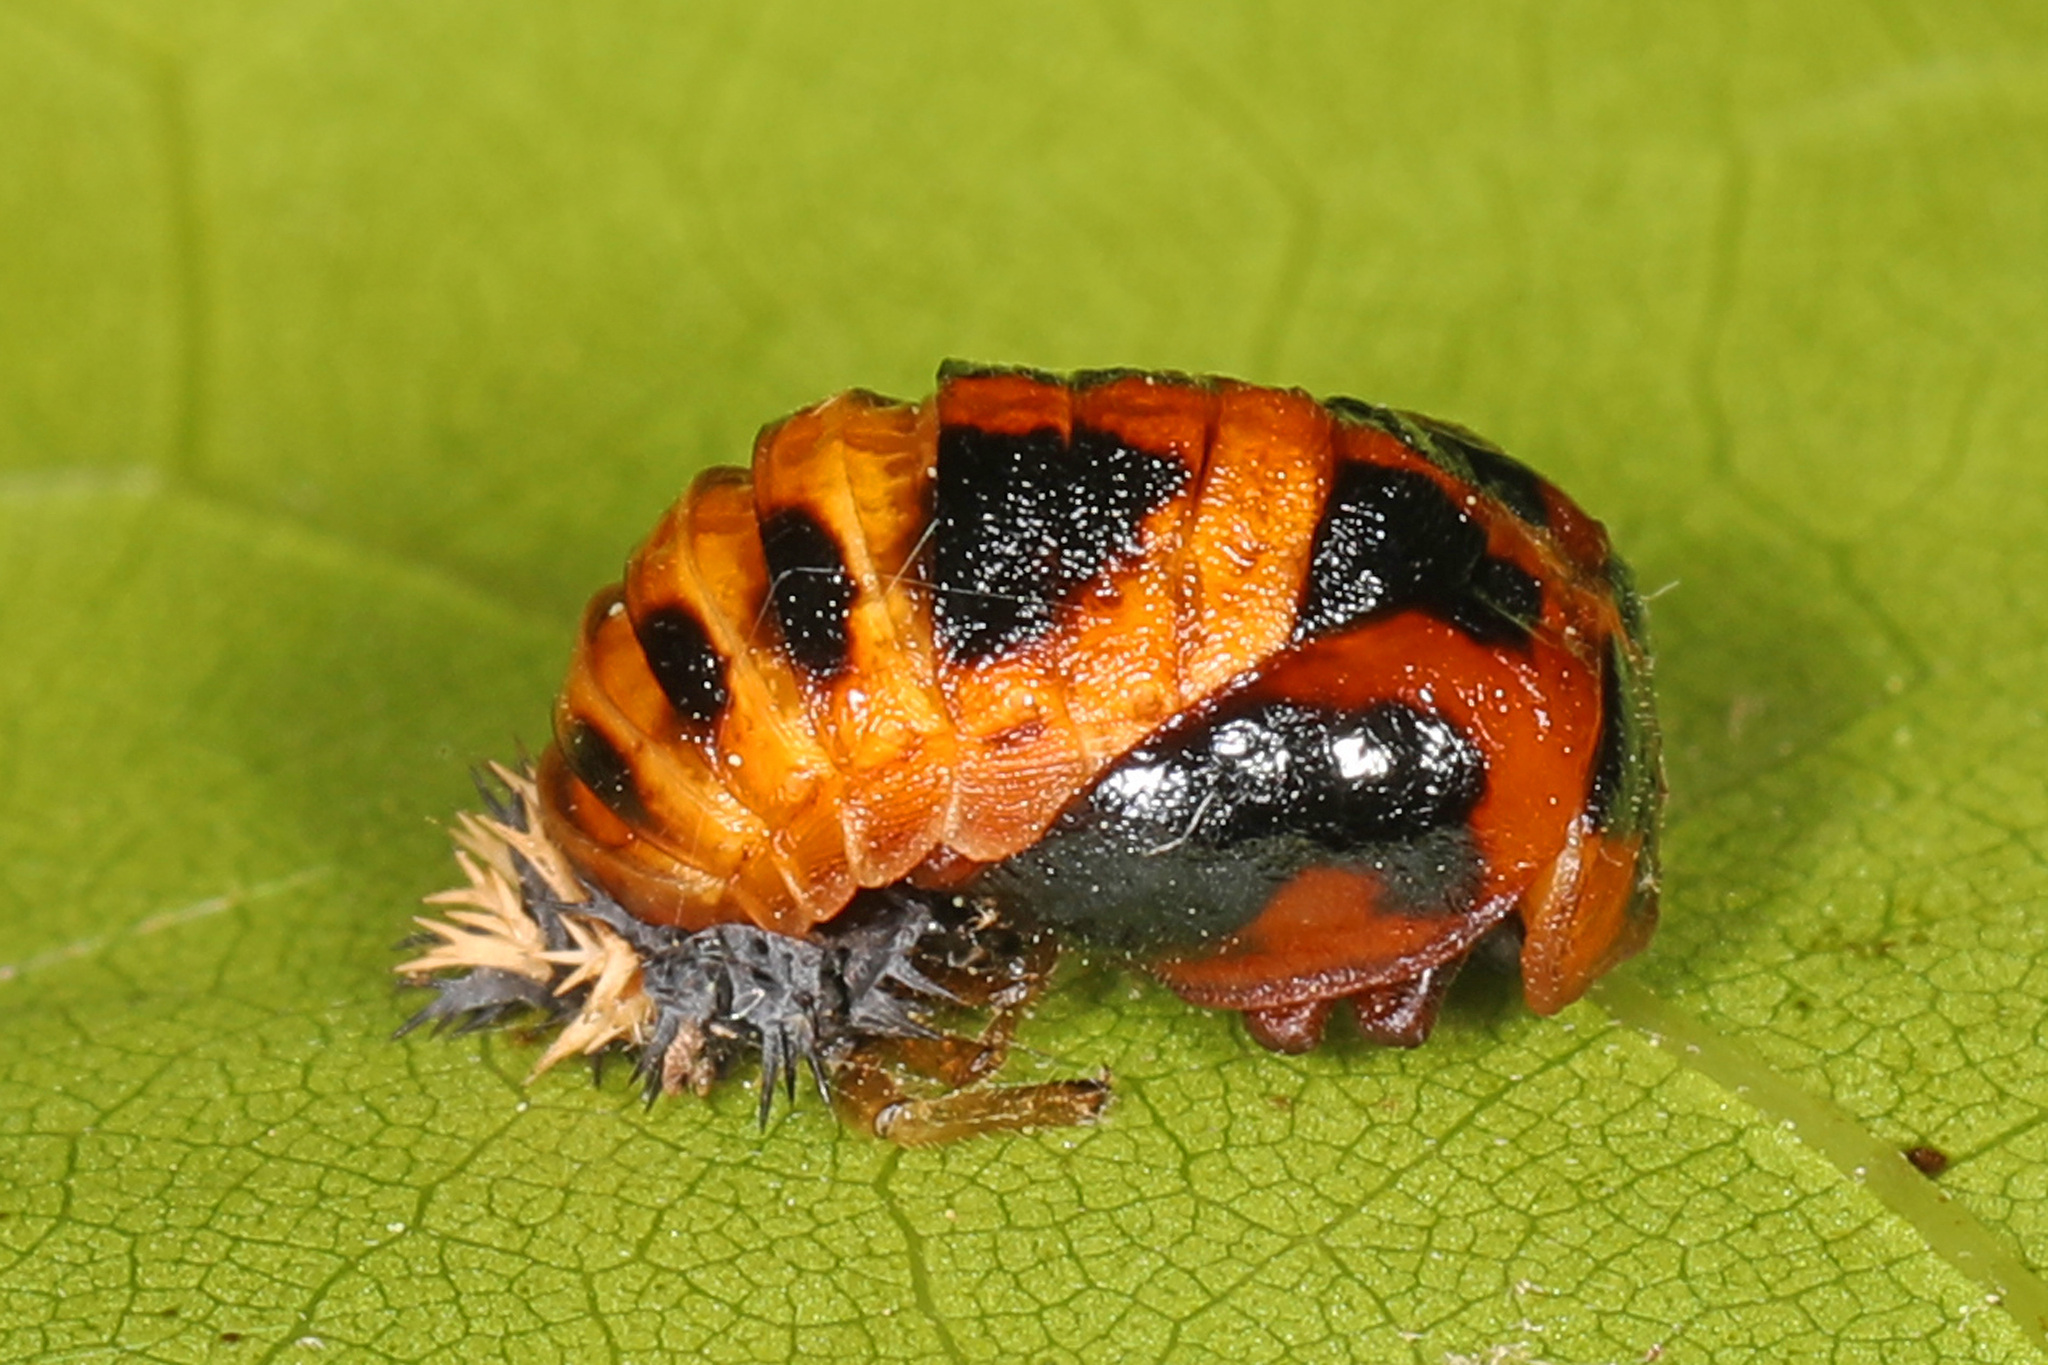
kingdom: Animalia
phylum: Arthropoda
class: Insecta
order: Coleoptera
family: Coccinellidae
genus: Harmonia
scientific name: Harmonia axyridis
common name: Harlequin ladybird
